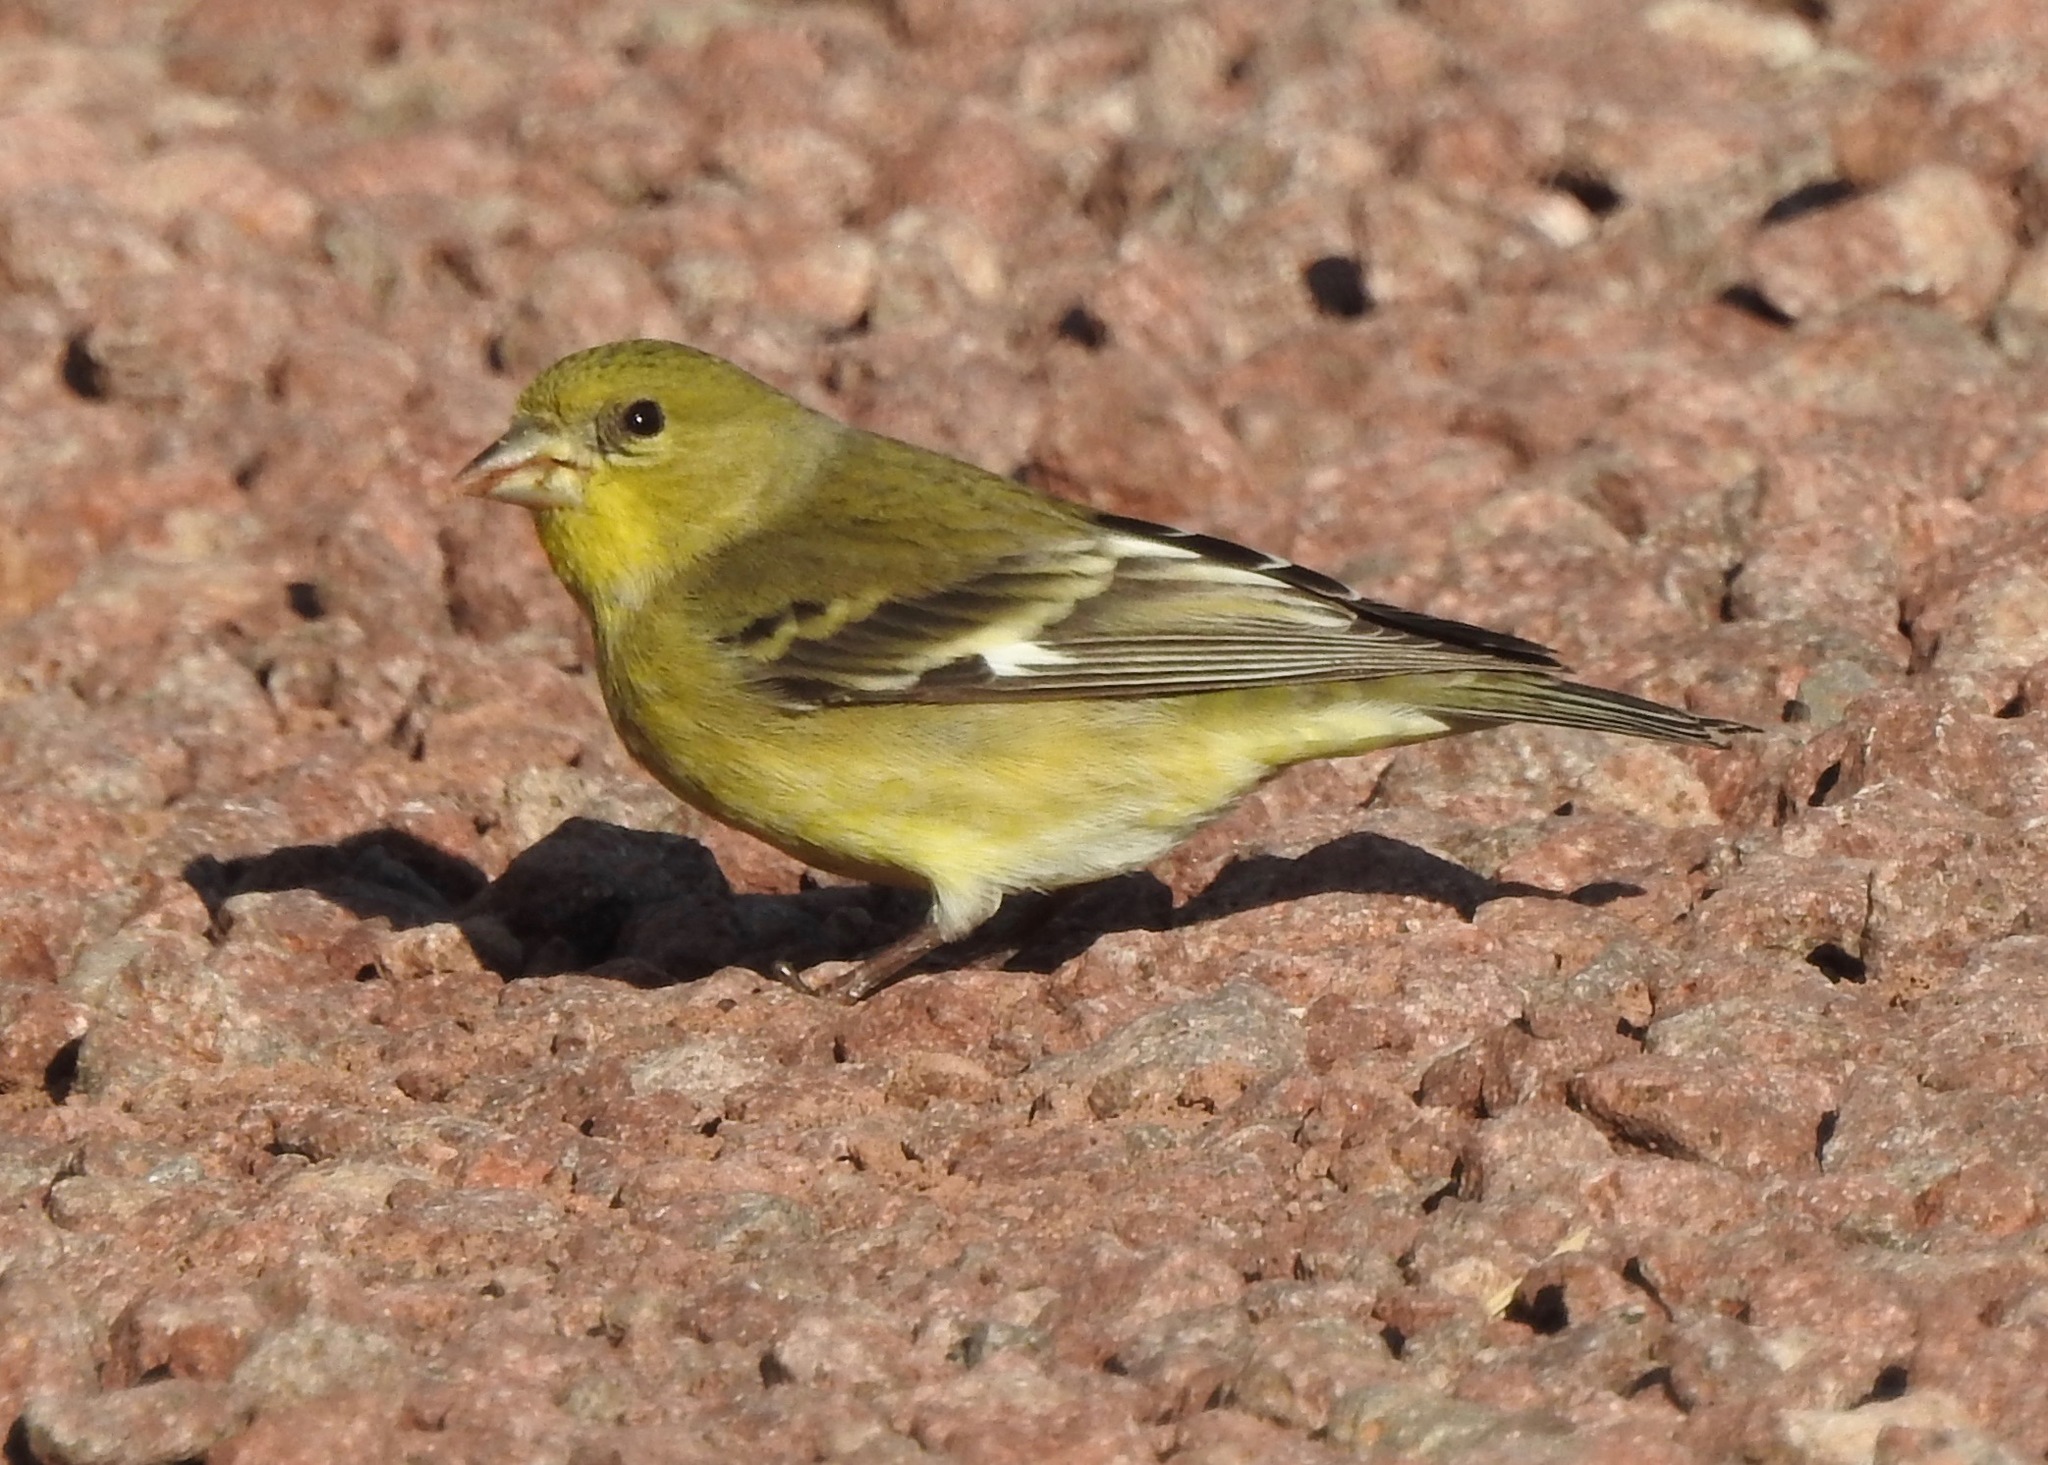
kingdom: Animalia
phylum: Chordata
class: Aves
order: Passeriformes
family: Fringillidae
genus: Spinus
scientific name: Spinus psaltria
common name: Lesser goldfinch
